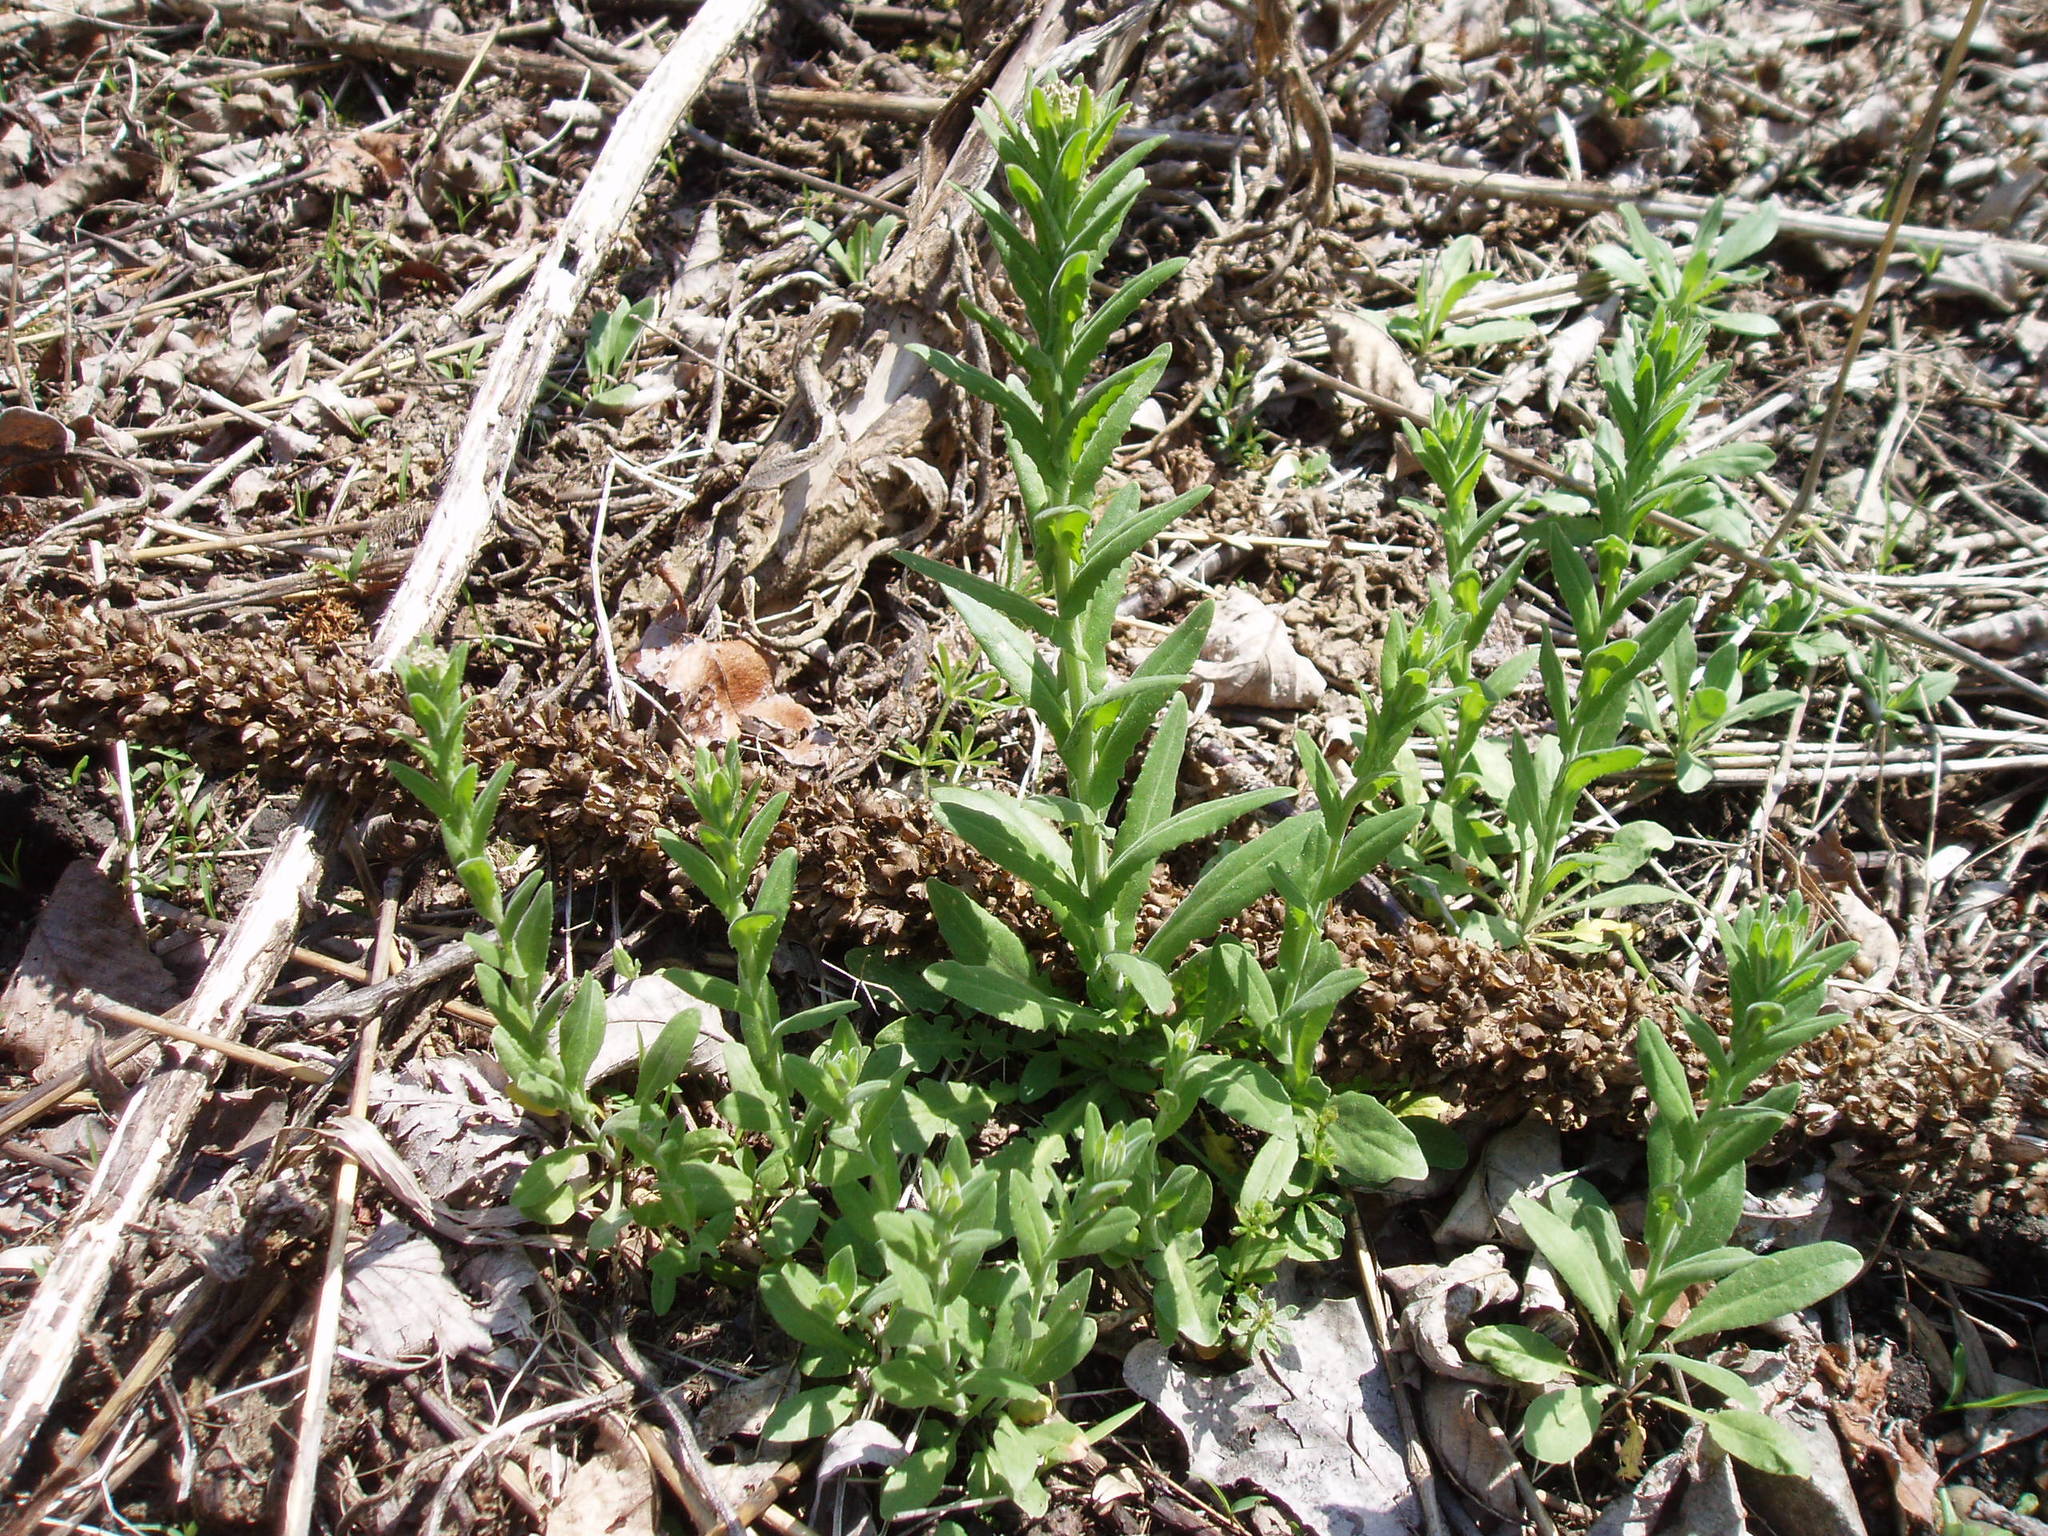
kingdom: Plantae
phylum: Tracheophyta
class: Magnoliopsida
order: Brassicales
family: Brassicaceae
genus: Lepidium
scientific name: Lepidium campestre
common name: Field pepperwort
